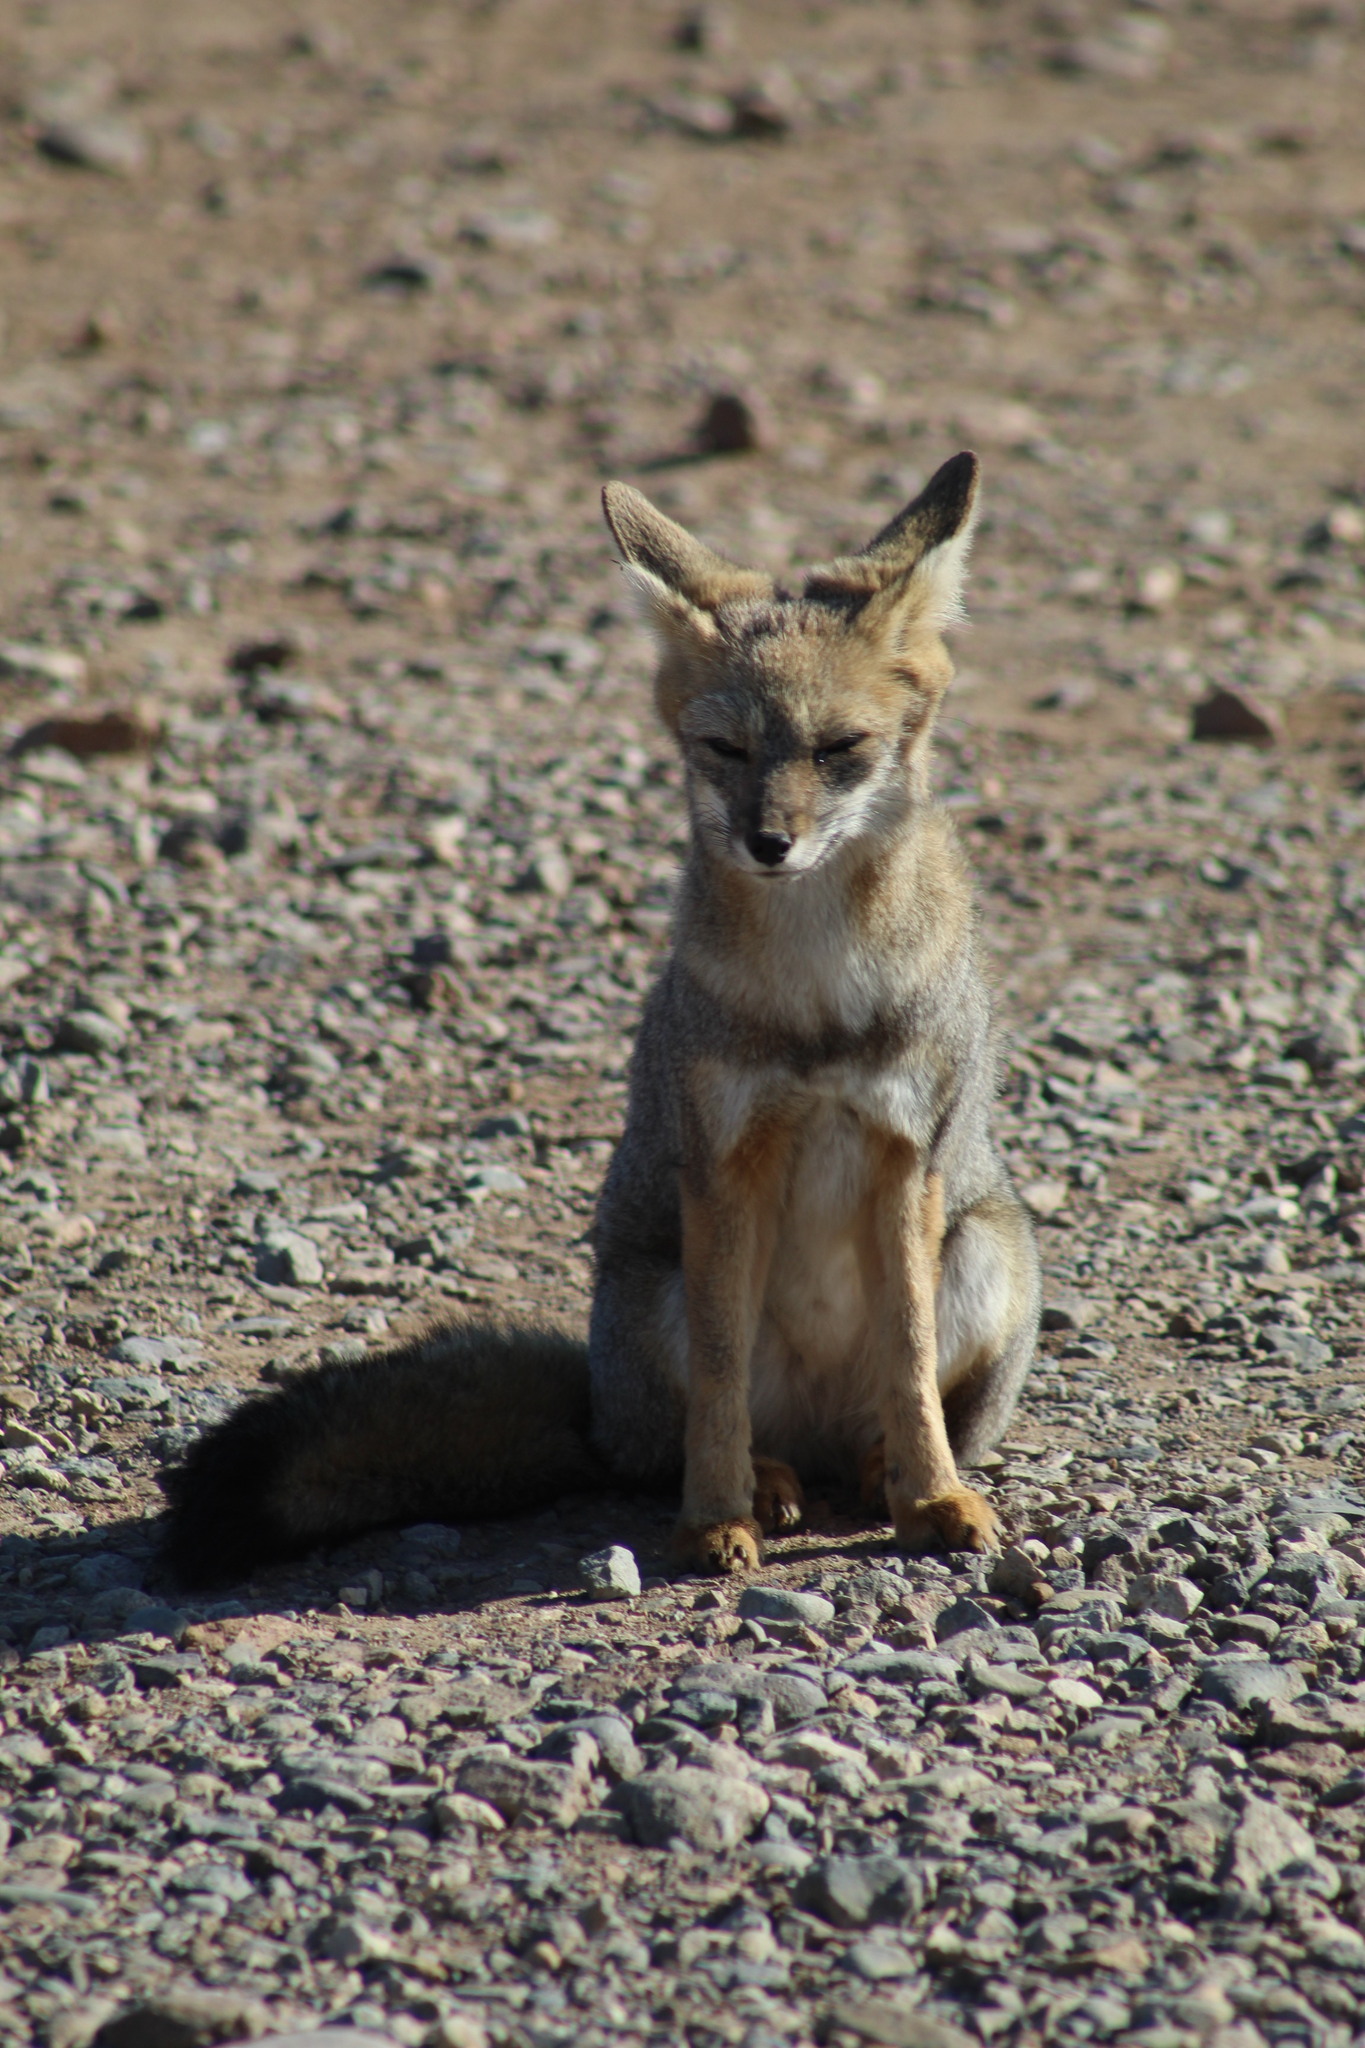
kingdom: Animalia
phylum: Chordata
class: Mammalia
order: Carnivora
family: Canidae
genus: Lycalopex
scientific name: Lycalopex gymnocercus
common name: Pampas fox
